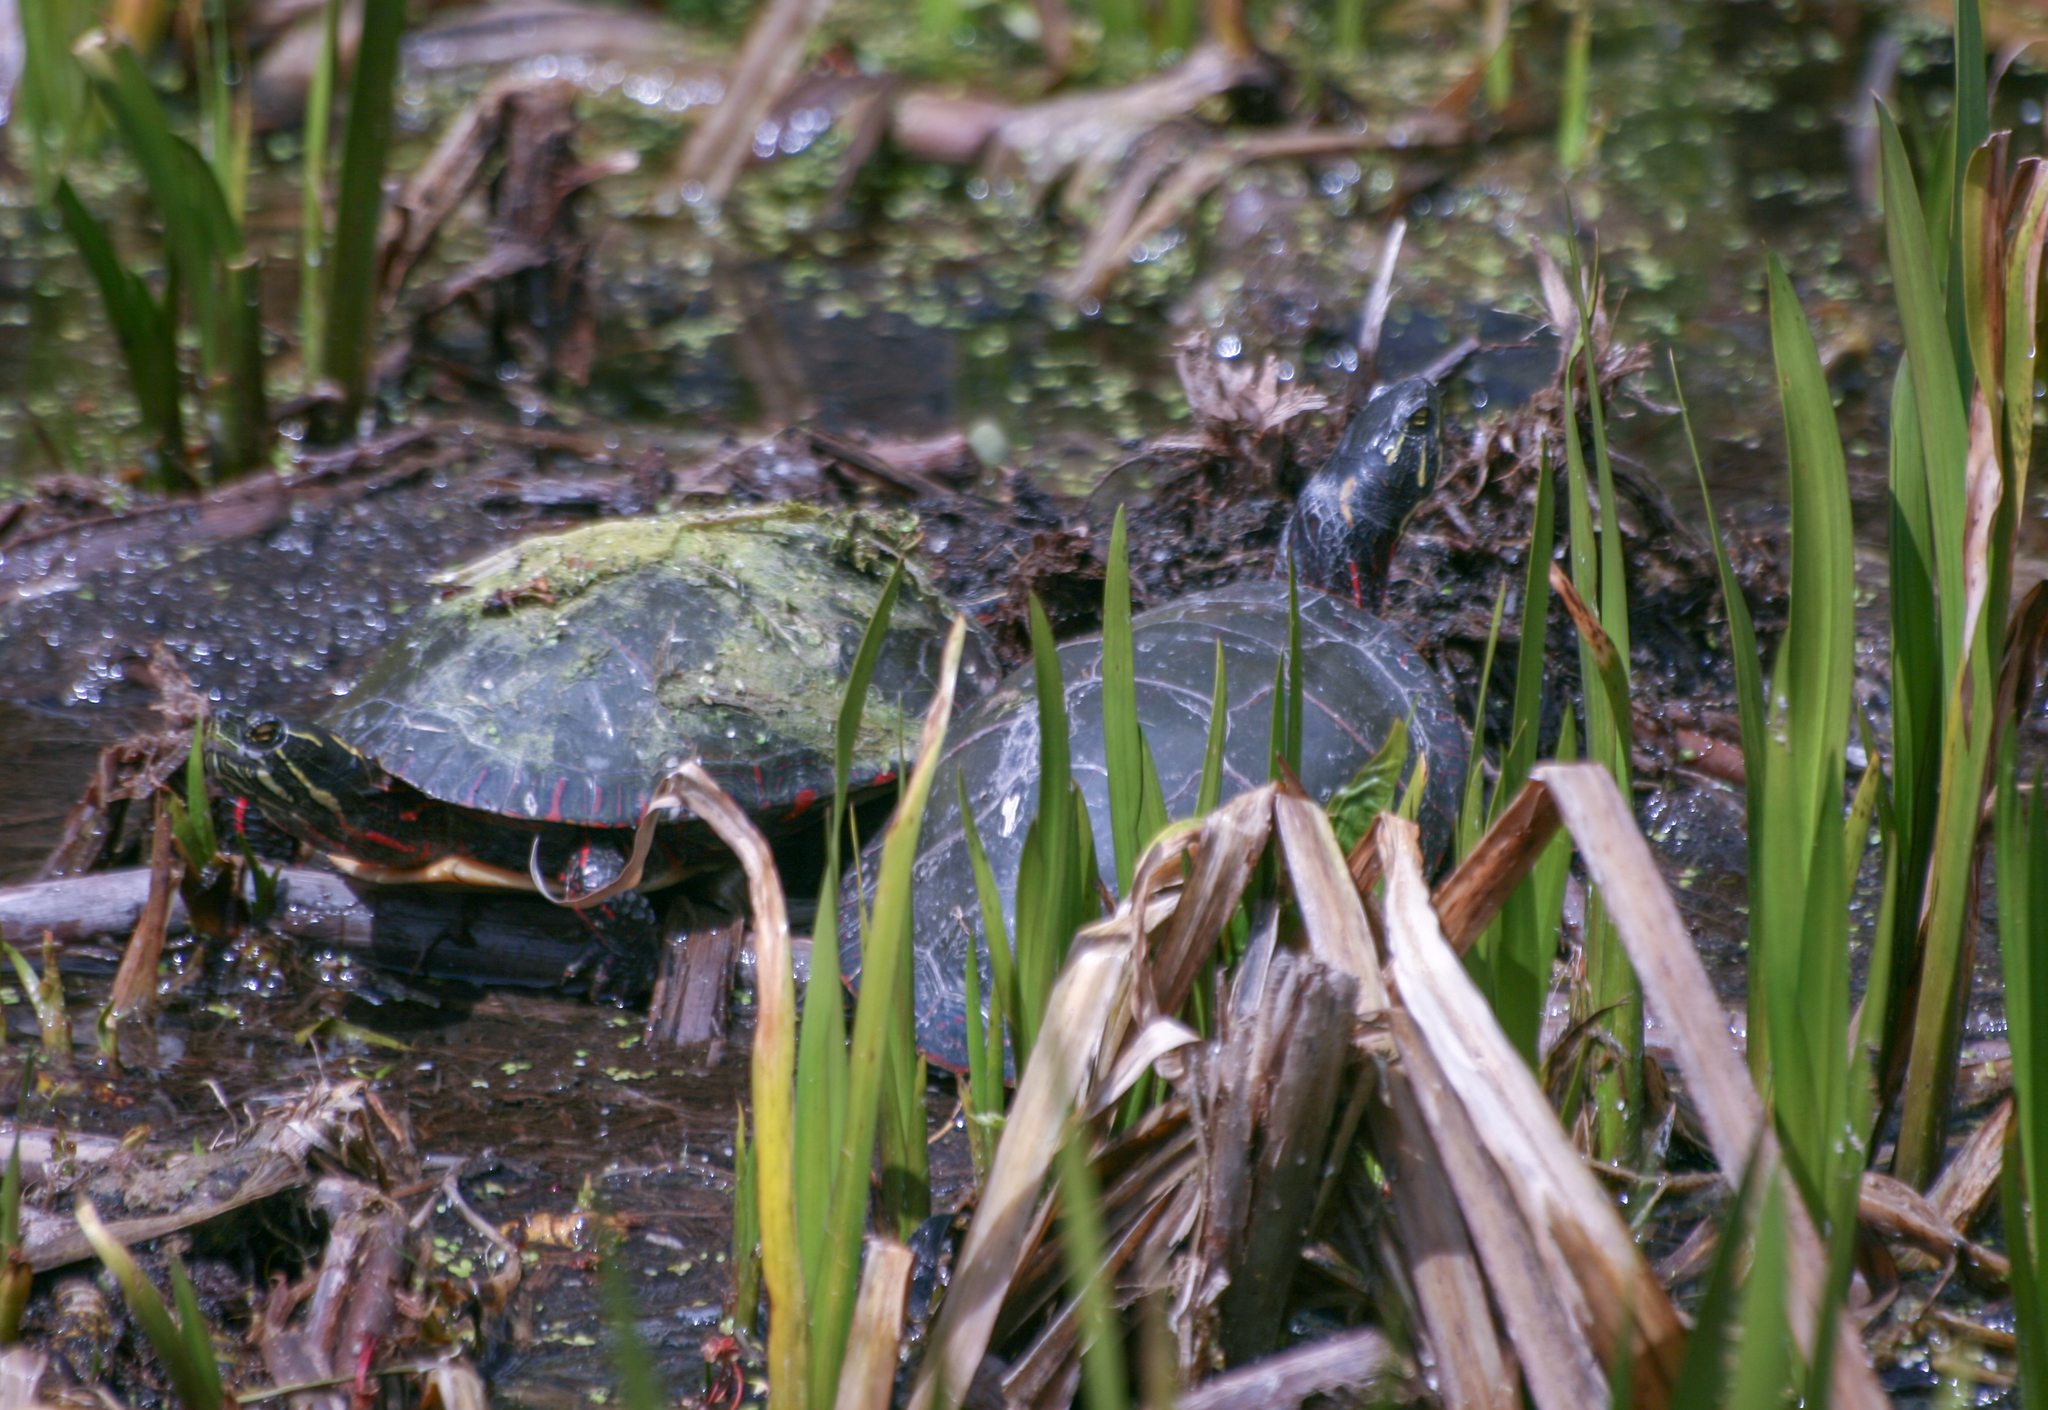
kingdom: Animalia
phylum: Chordata
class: Testudines
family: Emydidae
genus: Chrysemys
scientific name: Chrysemys picta
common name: Painted turtle
